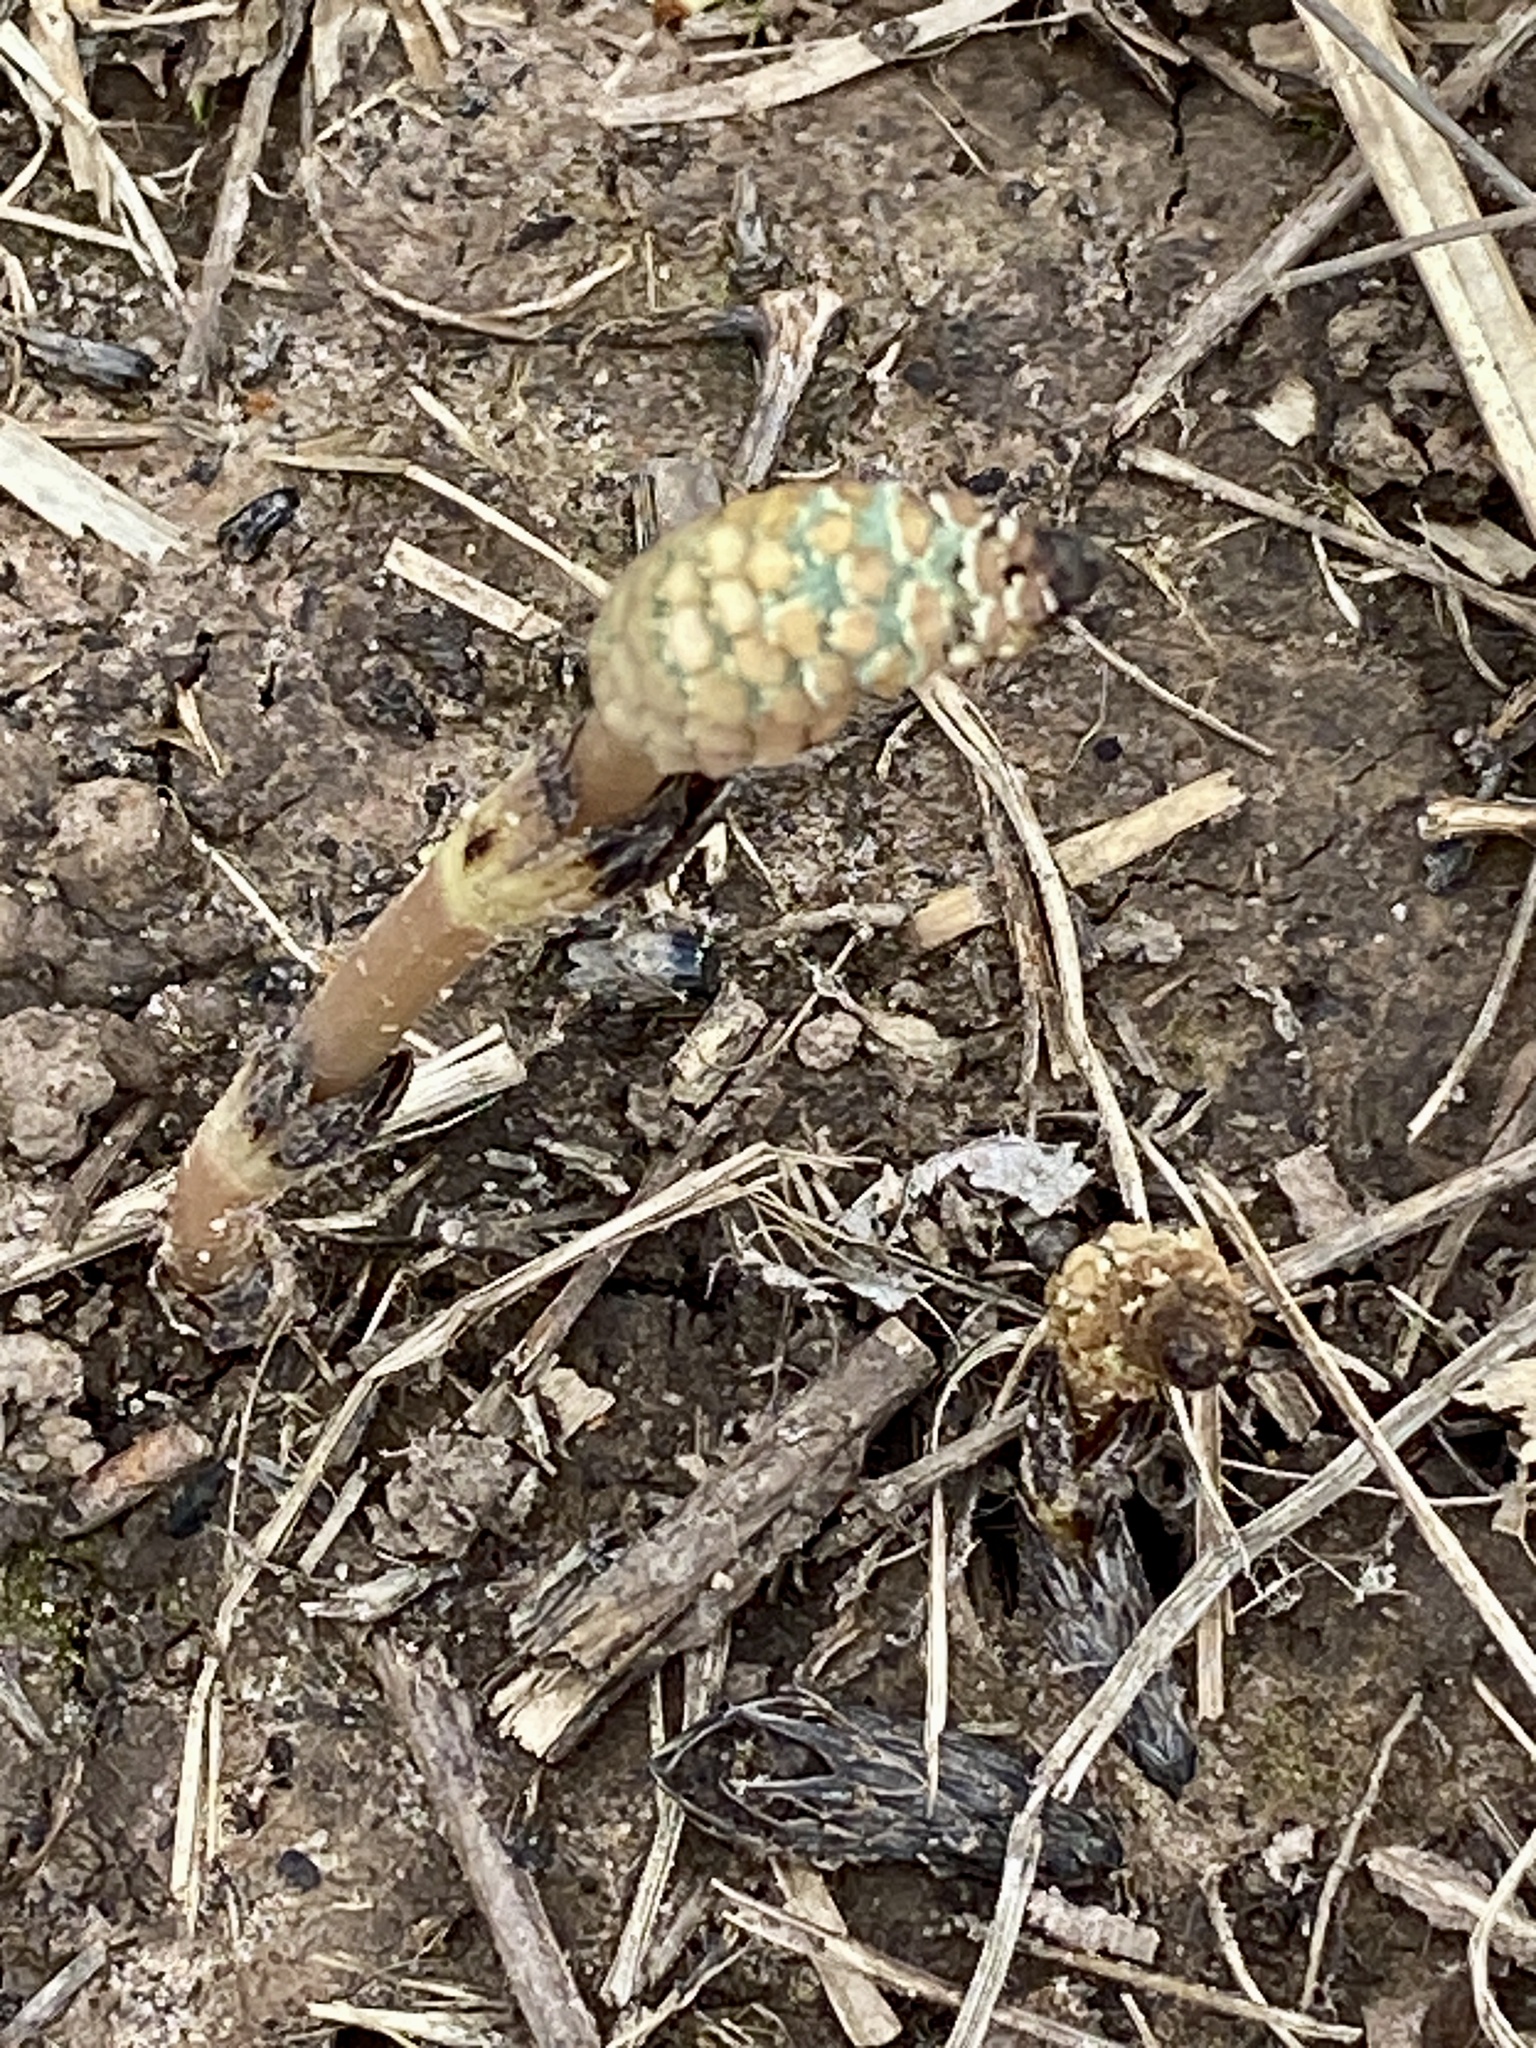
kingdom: Plantae
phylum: Tracheophyta
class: Polypodiopsida
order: Equisetales
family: Equisetaceae
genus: Equisetum
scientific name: Equisetum arvense
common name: Field horsetail
